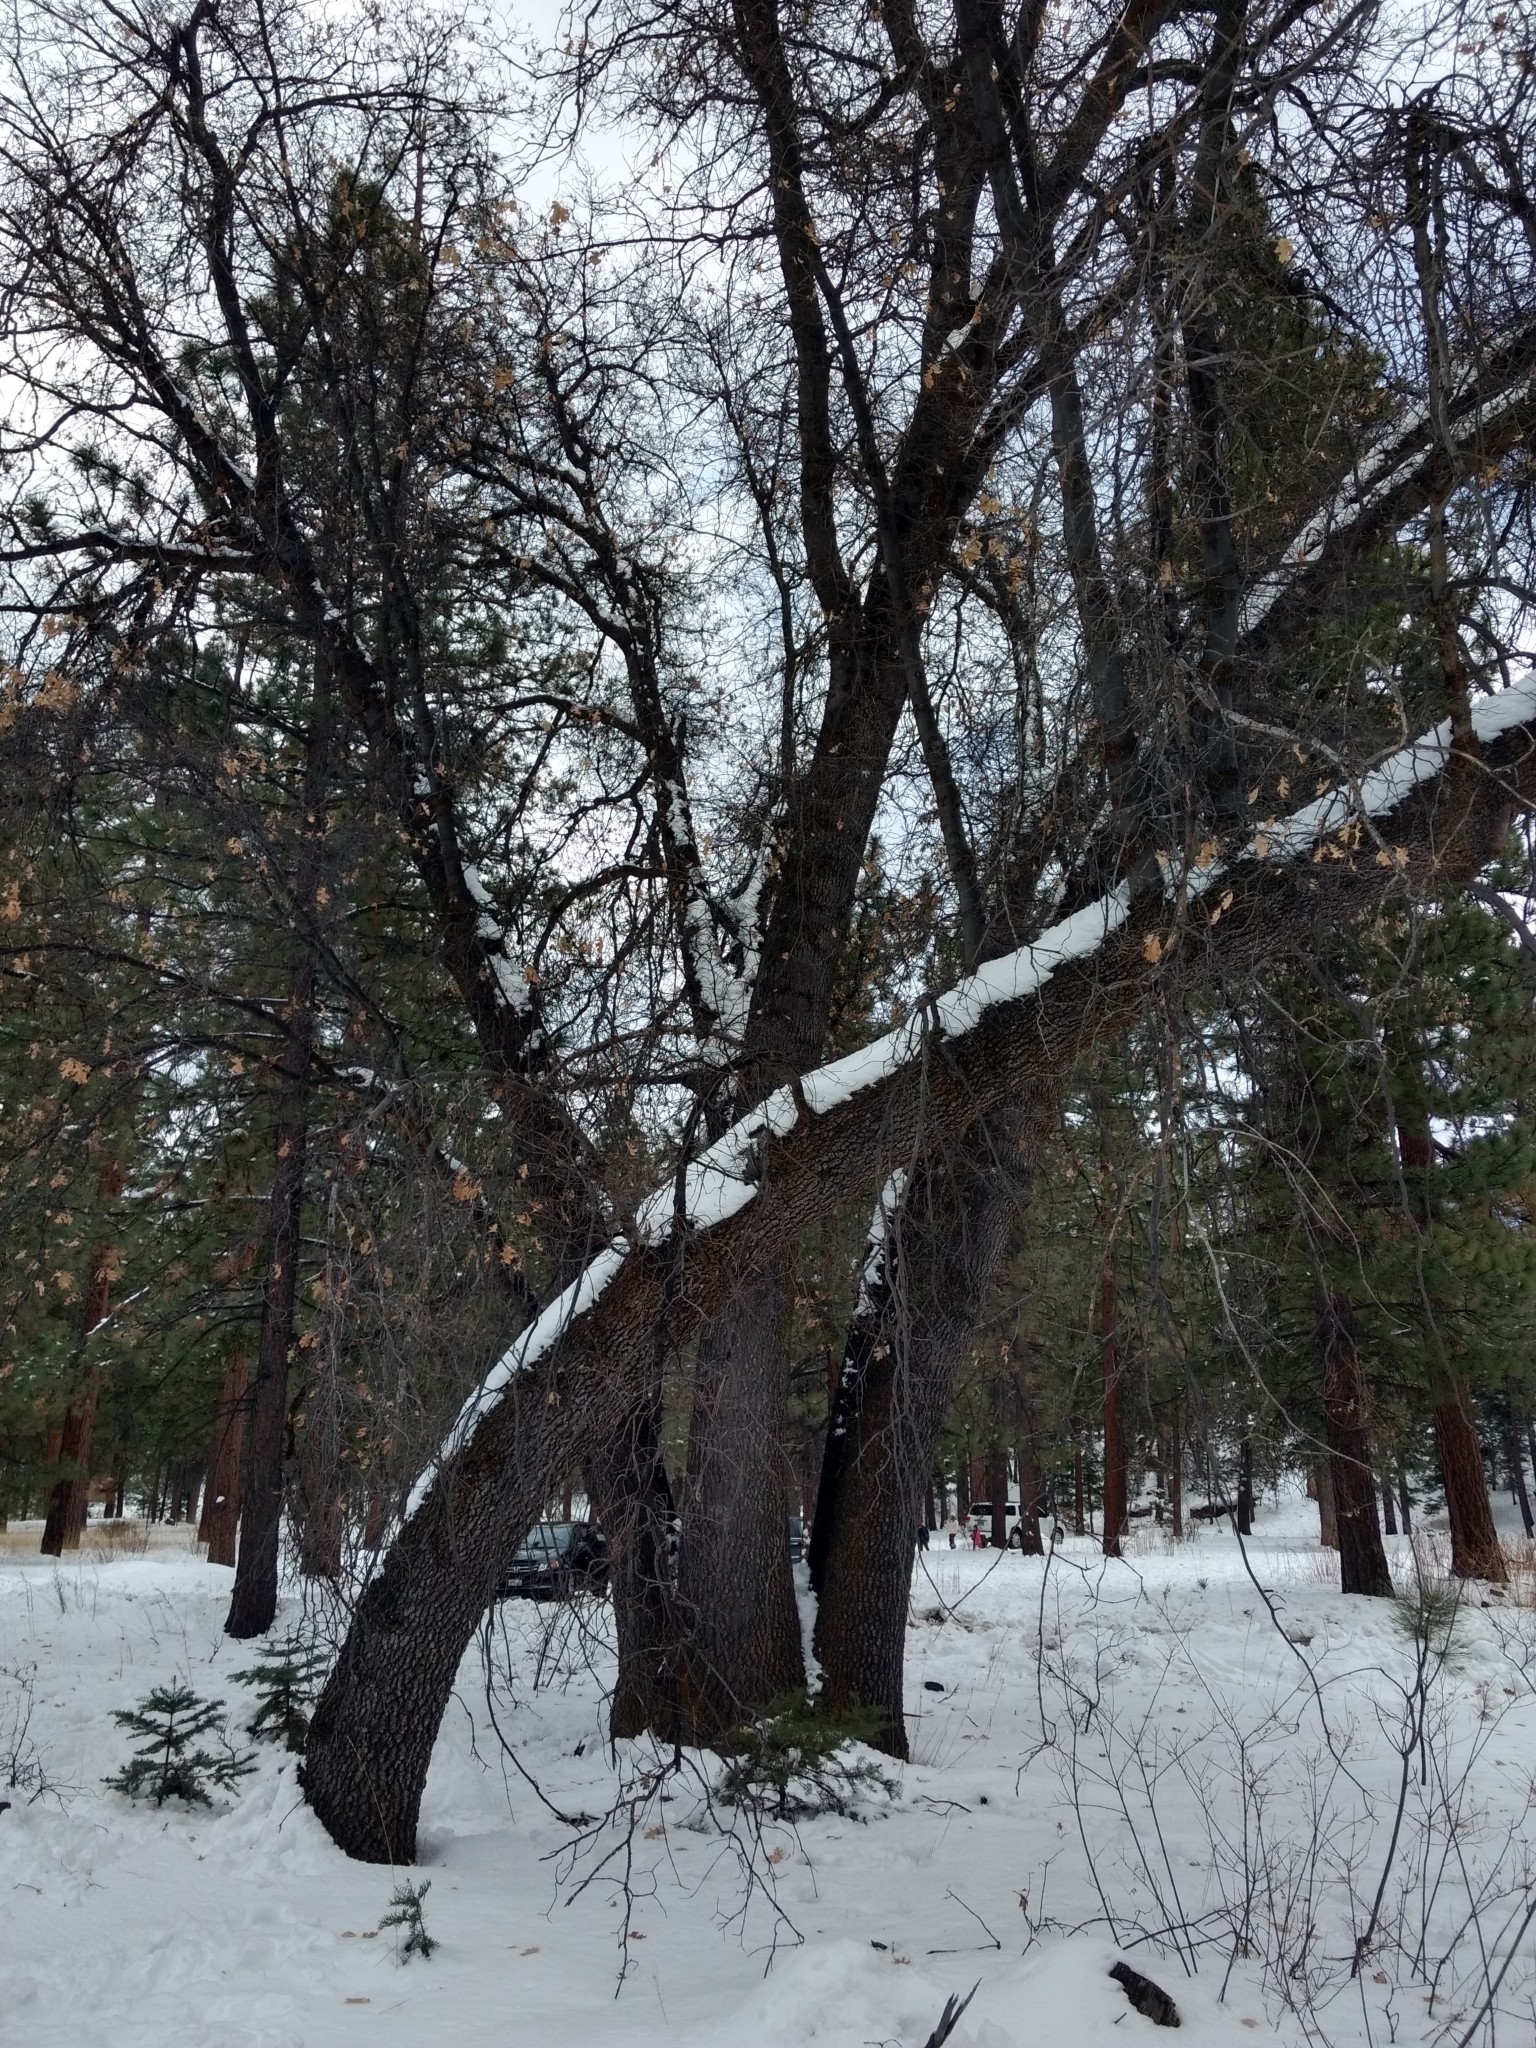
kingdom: Plantae
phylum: Tracheophyta
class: Magnoliopsida
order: Fagales
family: Fagaceae
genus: Quercus
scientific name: Quercus kelloggii
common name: California black oak
